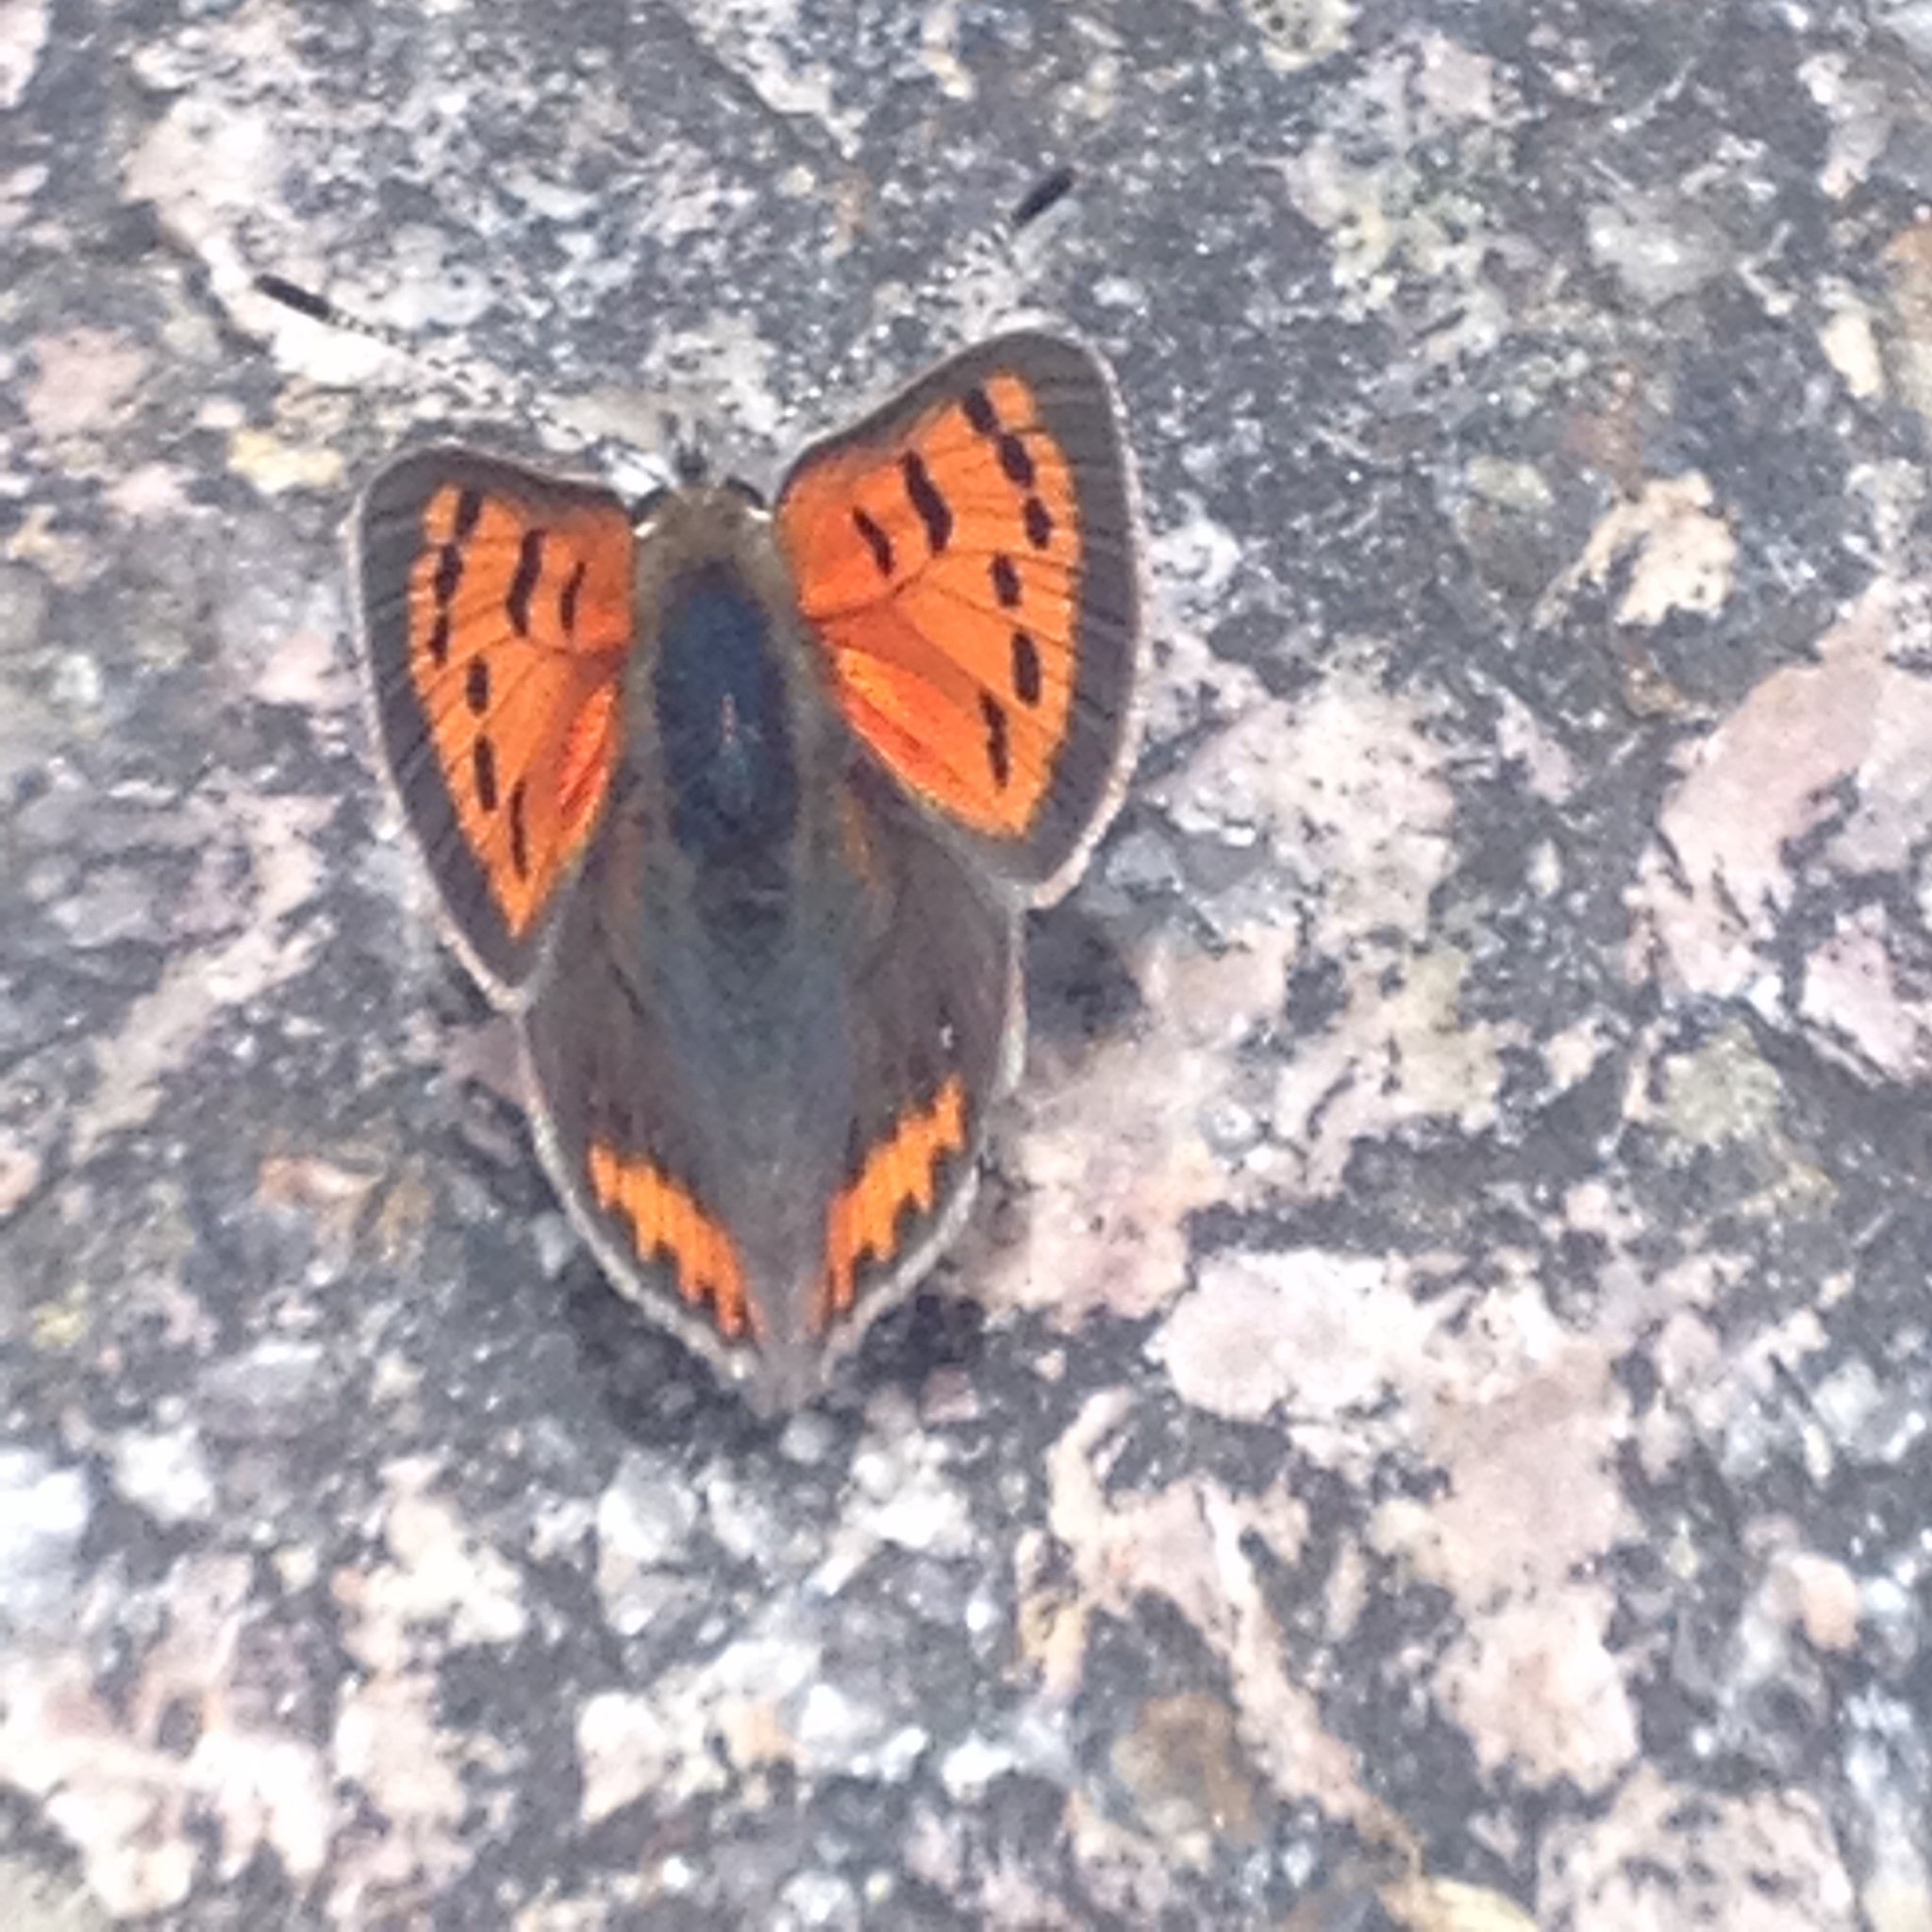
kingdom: Animalia
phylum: Arthropoda
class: Insecta
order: Lepidoptera
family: Lycaenidae
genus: Lycaena
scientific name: Lycaena hypophlaeas
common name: American copper
